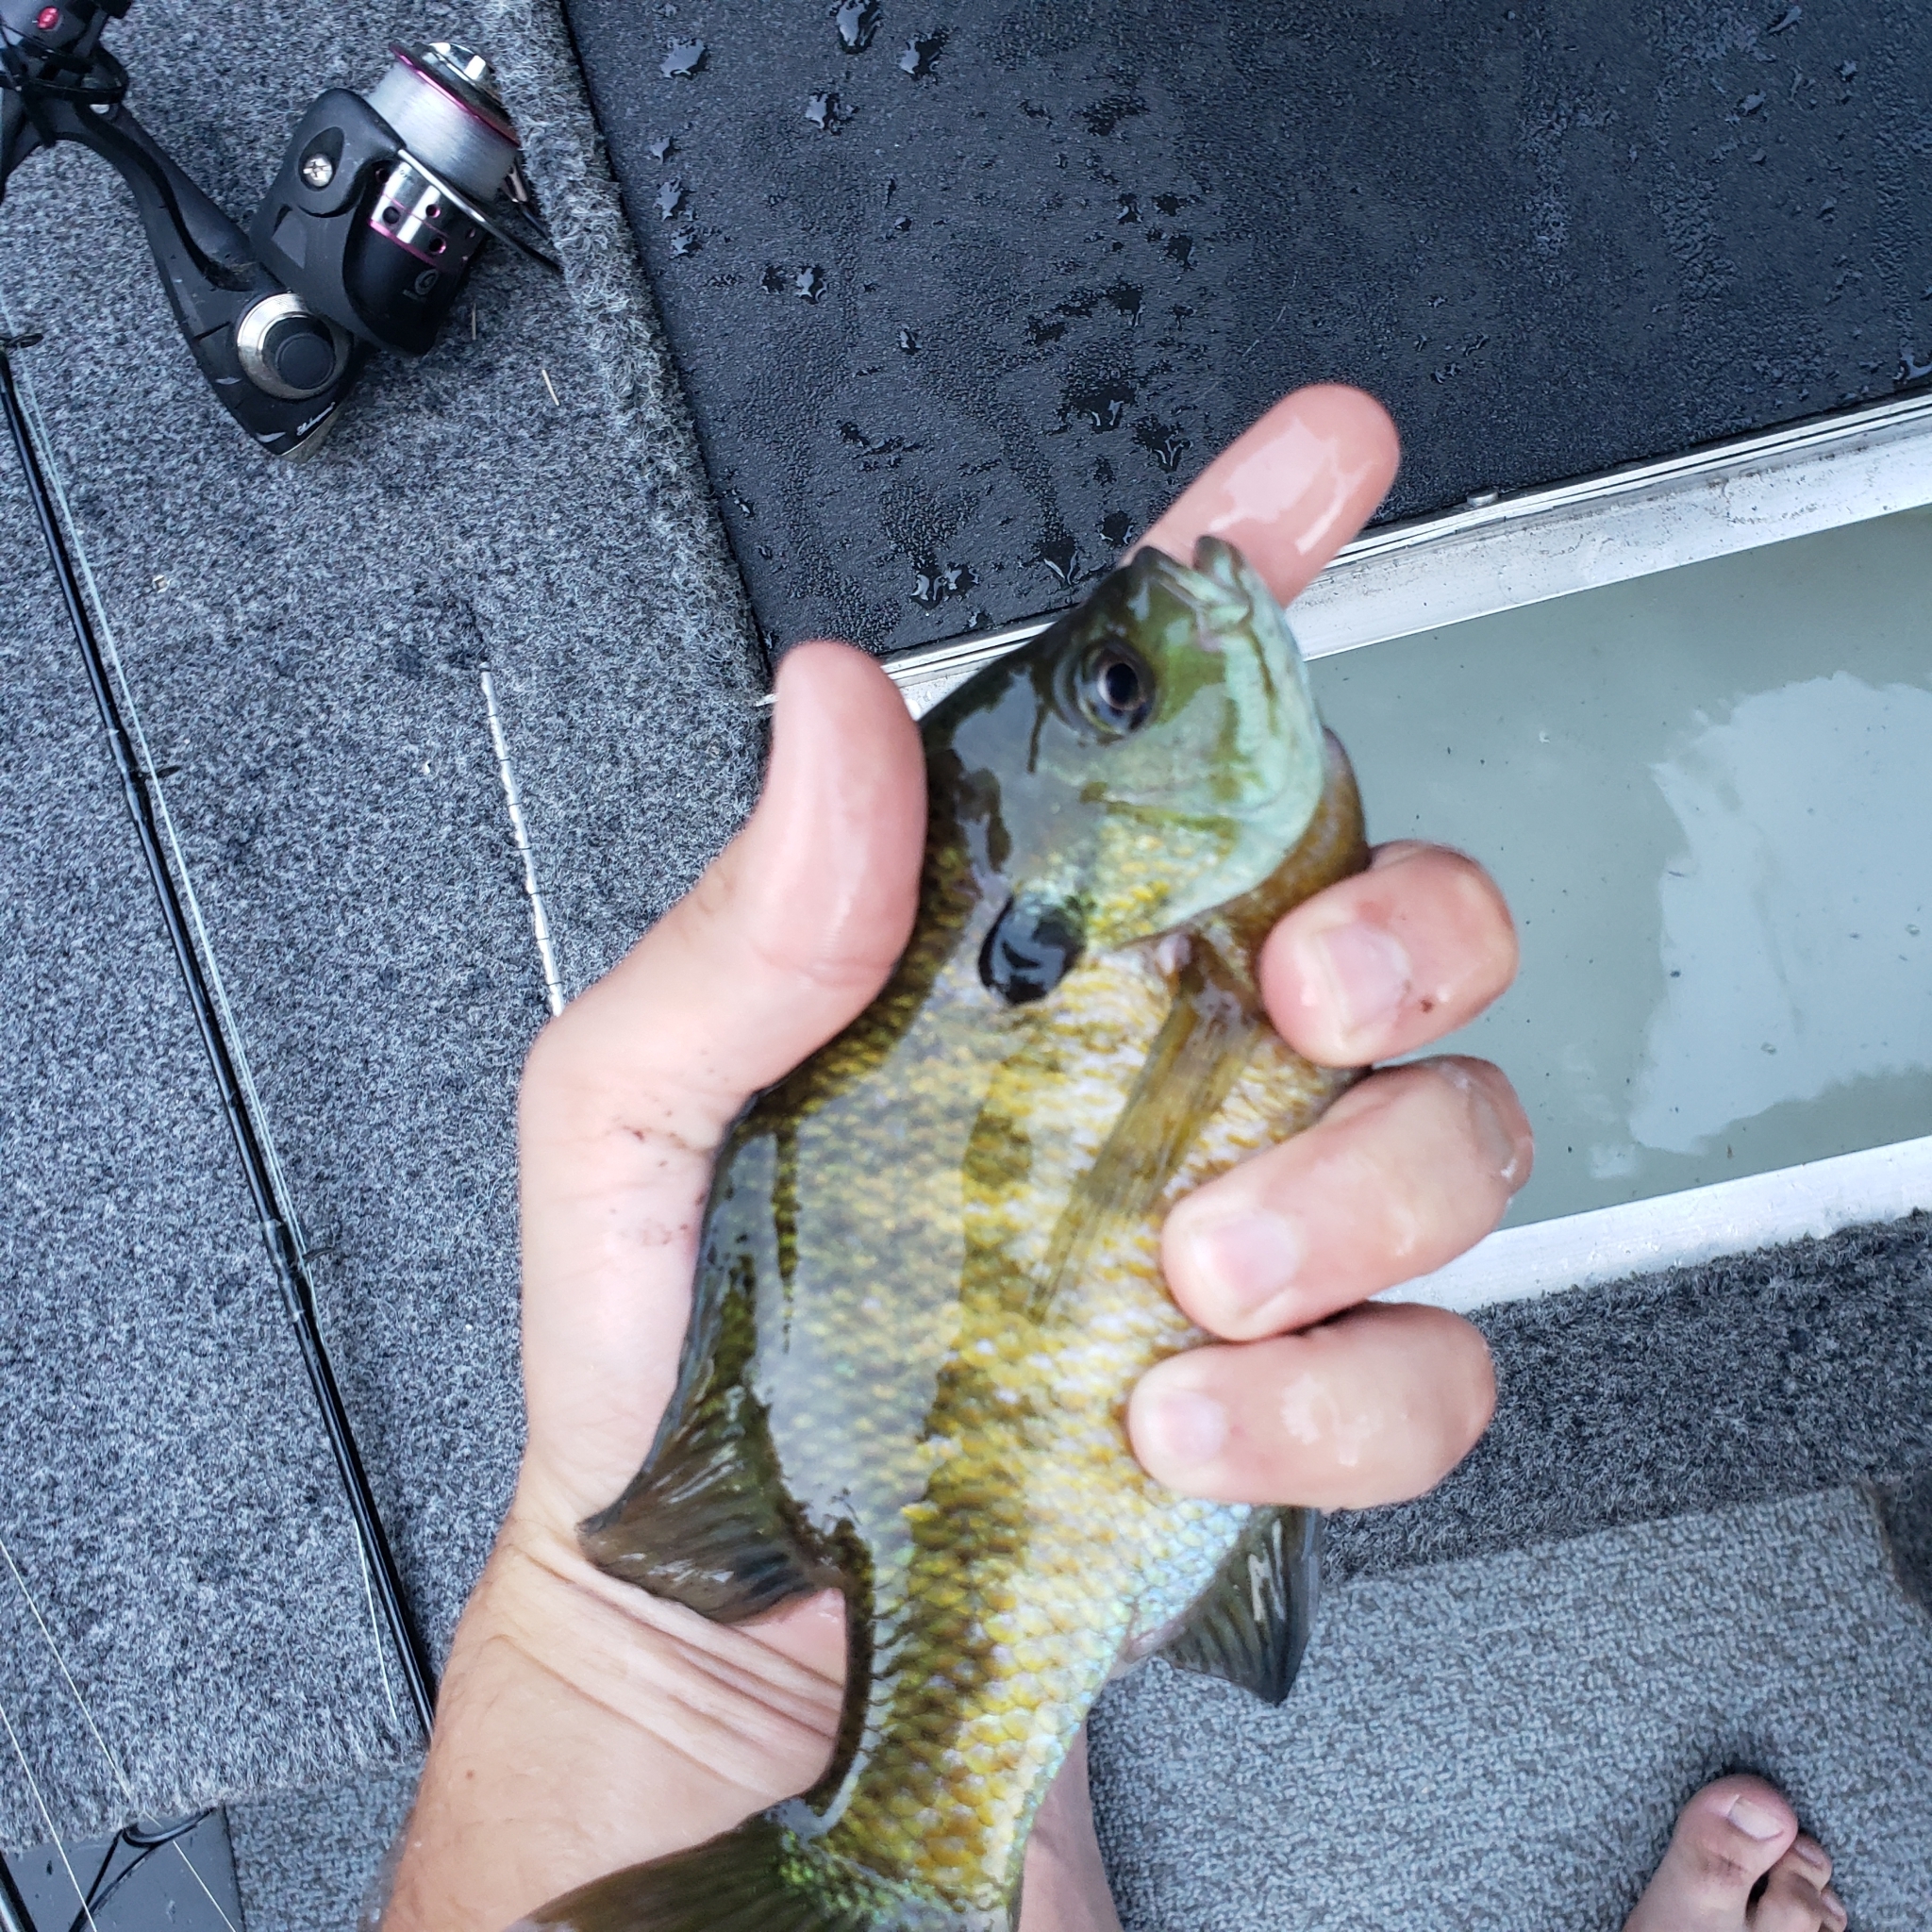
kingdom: Animalia
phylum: Chordata
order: Perciformes
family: Centrarchidae
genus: Lepomis
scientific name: Lepomis macrochirus
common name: Bluegill
